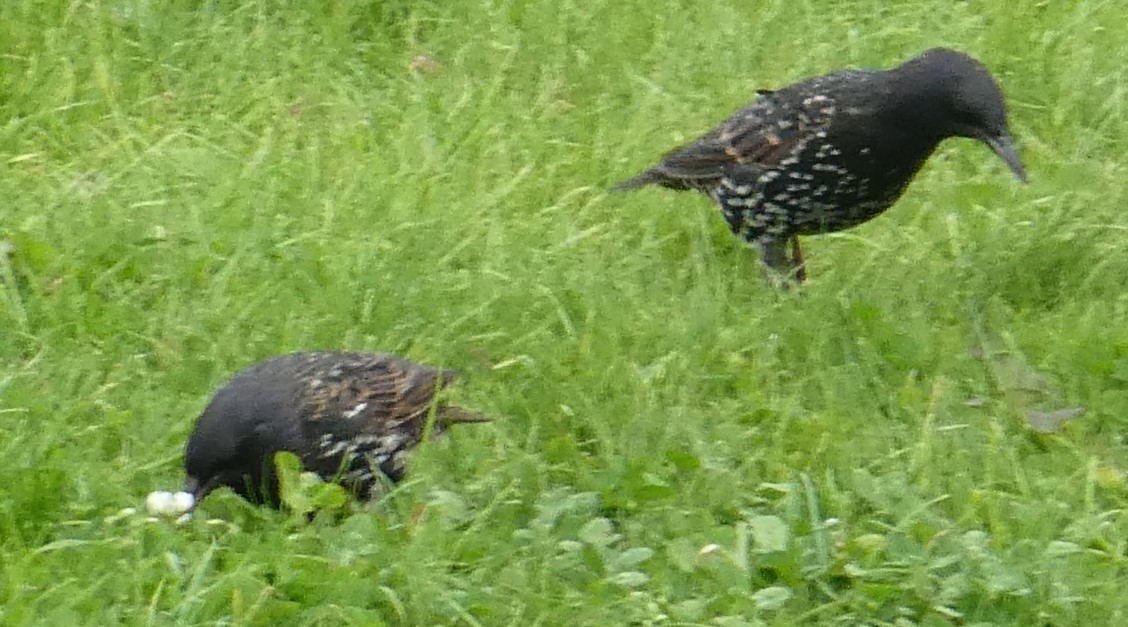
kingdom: Animalia
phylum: Chordata
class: Aves
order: Passeriformes
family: Sturnidae
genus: Sturnus
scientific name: Sturnus vulgaris
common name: Common starling
